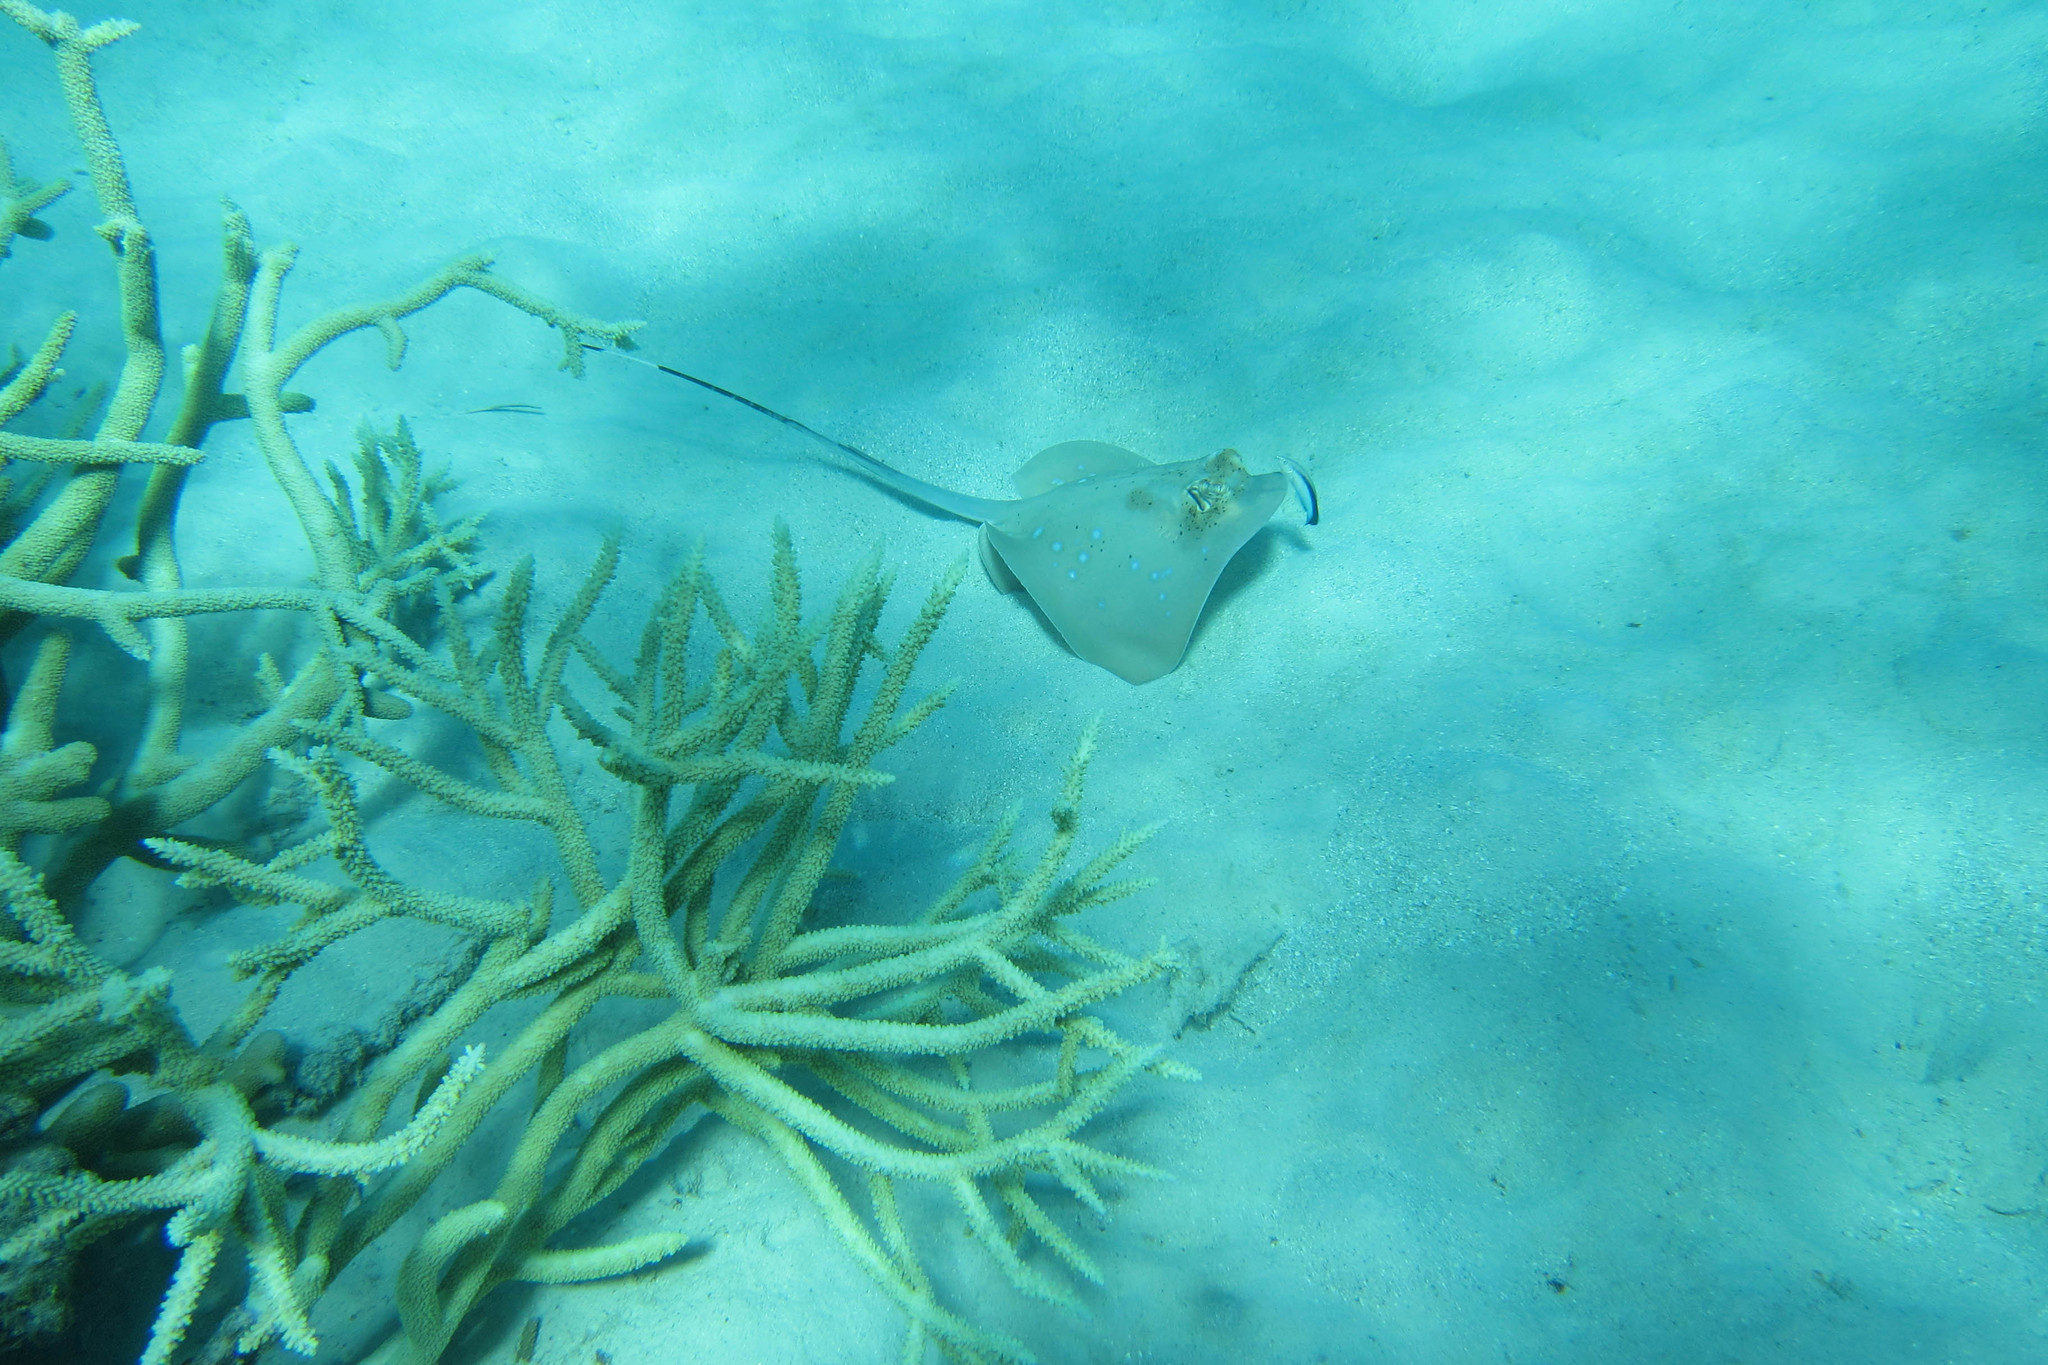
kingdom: Animalia
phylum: Chordata
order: Perciformes
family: Labridae
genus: Labroides
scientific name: Labroides dimidiatus
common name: Blue diesel wrasse
